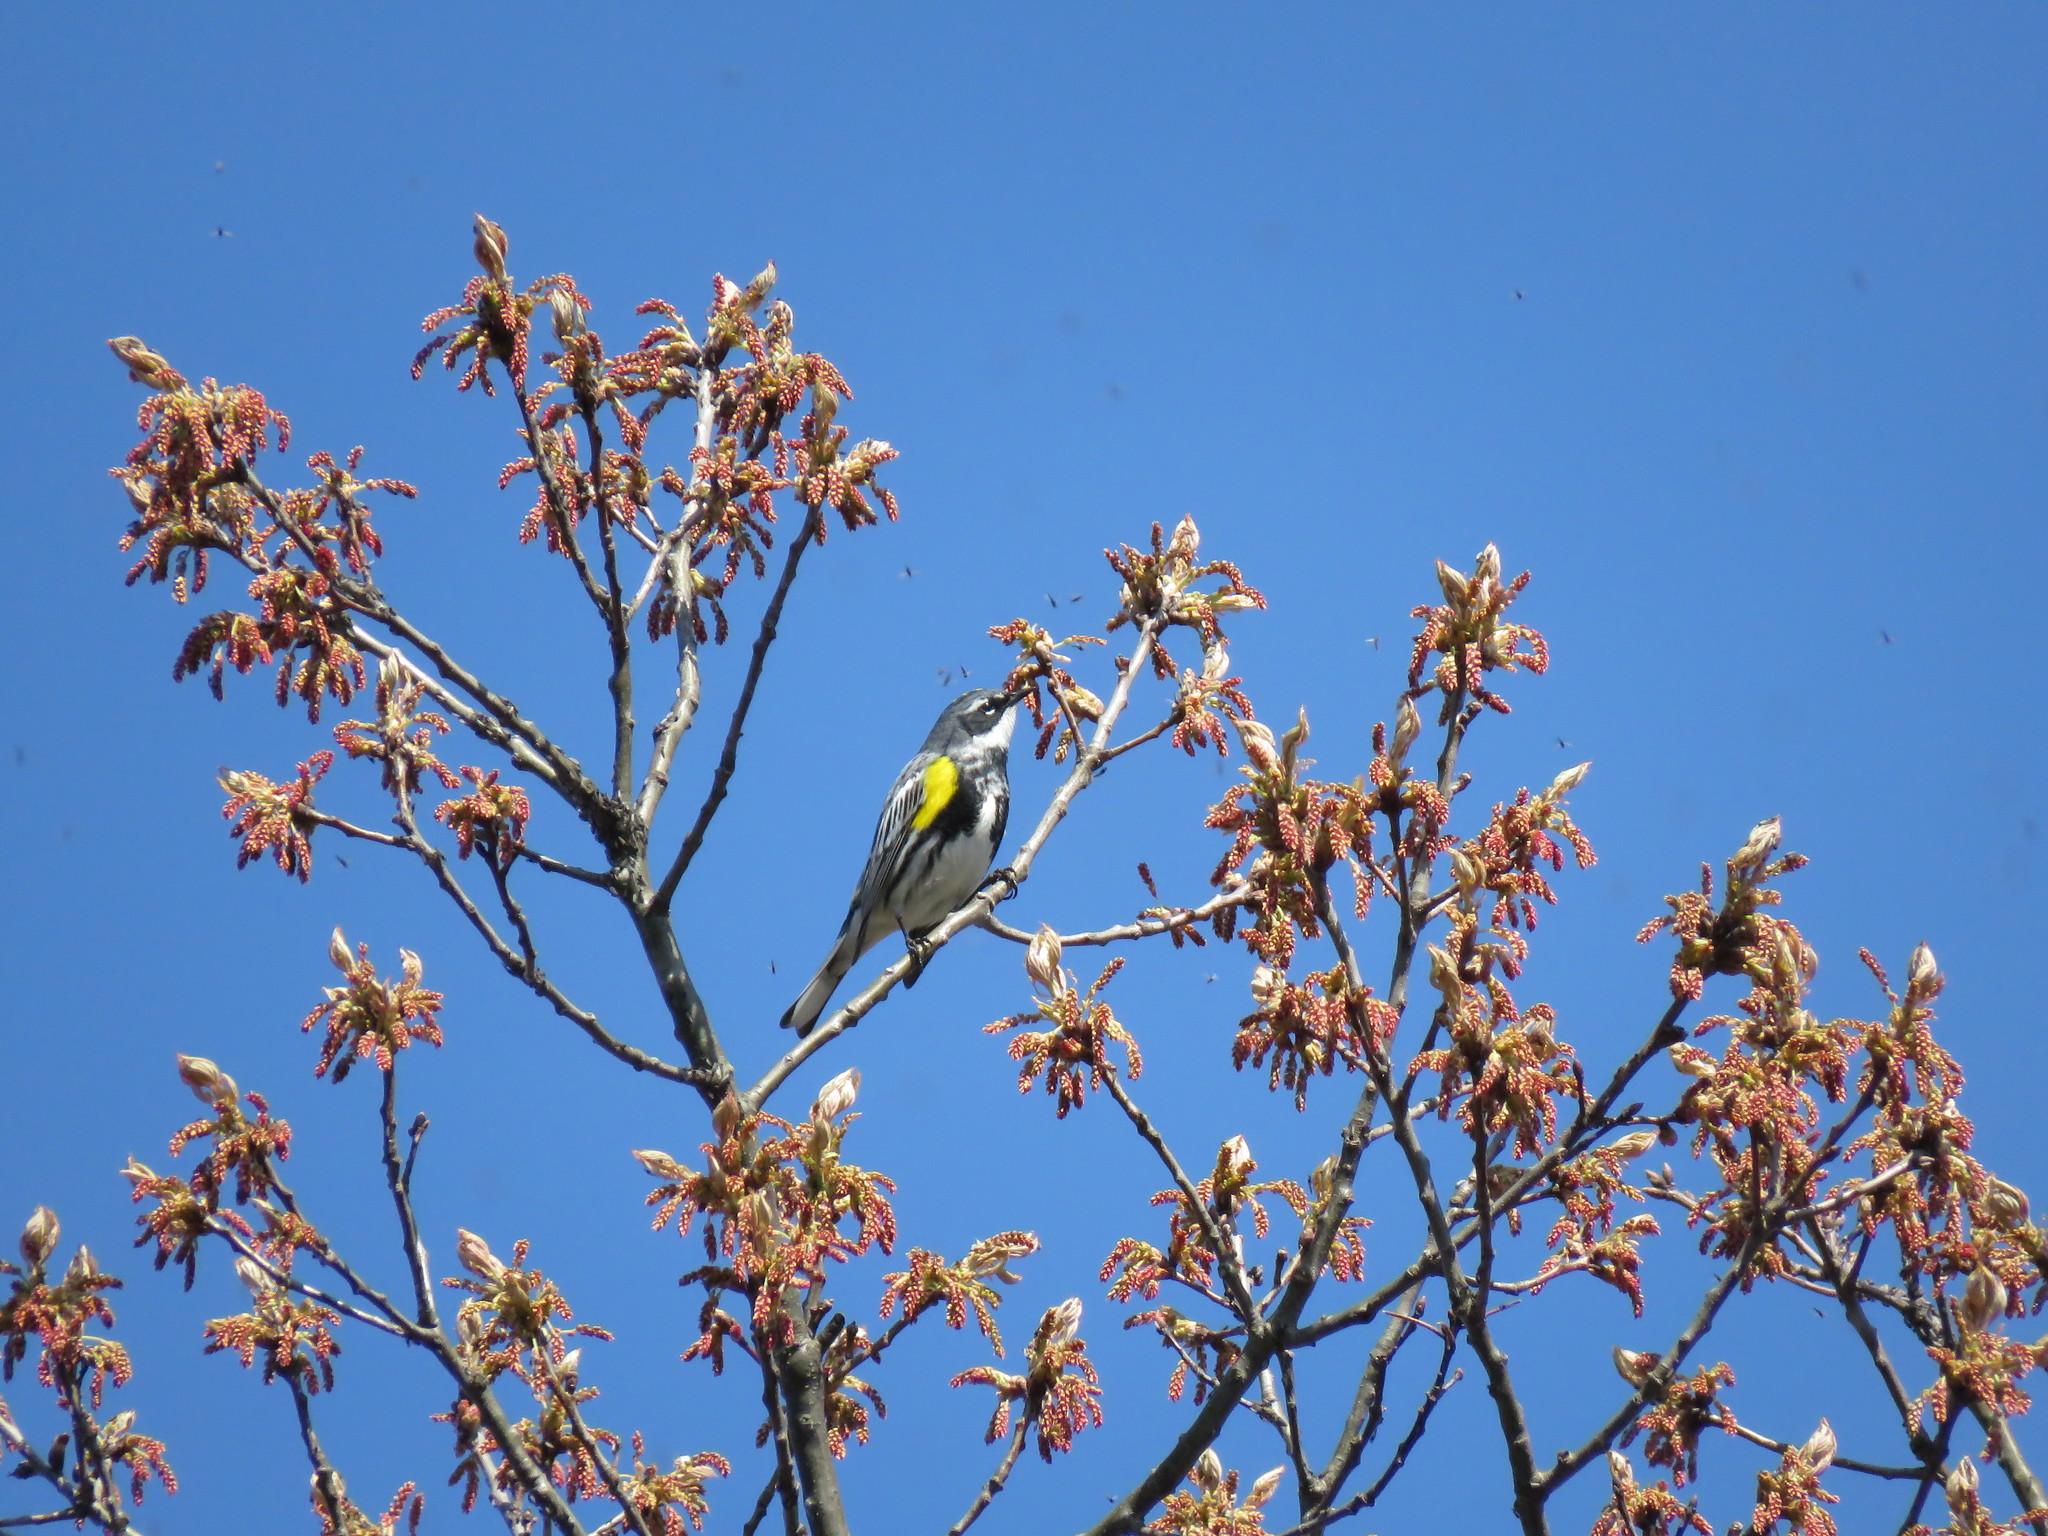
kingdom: Animalia
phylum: Chordata
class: Aves
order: Passeriformes
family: Parulidae
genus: Setophaga
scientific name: Setophaga coronata
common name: Myrtle warbler
